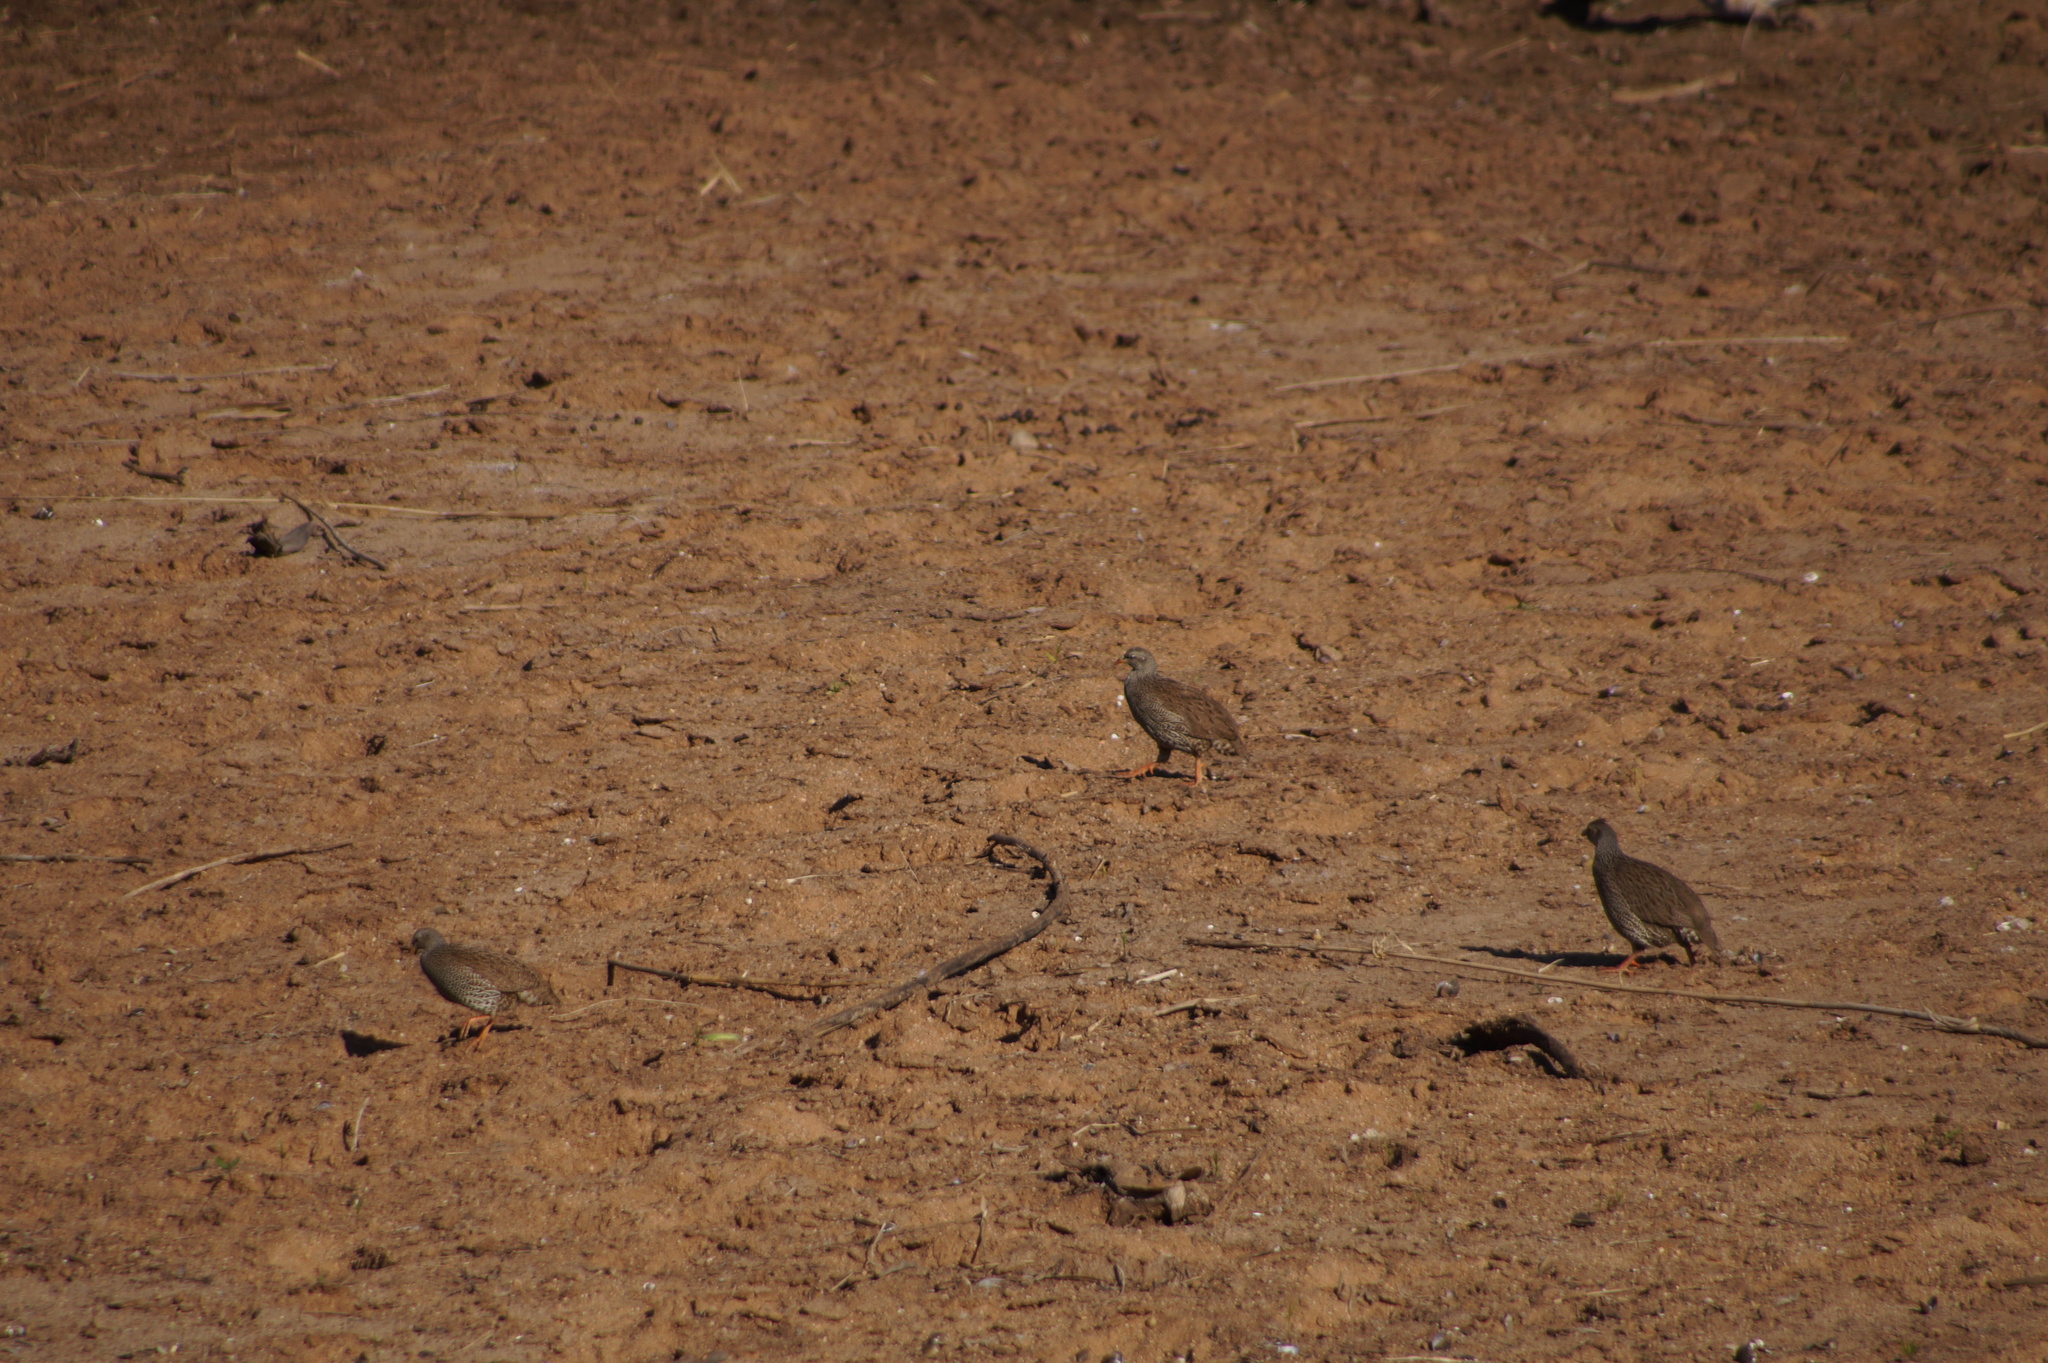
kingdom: Animalia
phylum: Chordata
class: Aves
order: Galliformes
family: Phasianidae
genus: Pternistis
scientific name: Pternistis natalensis
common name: Natal spurfowl
